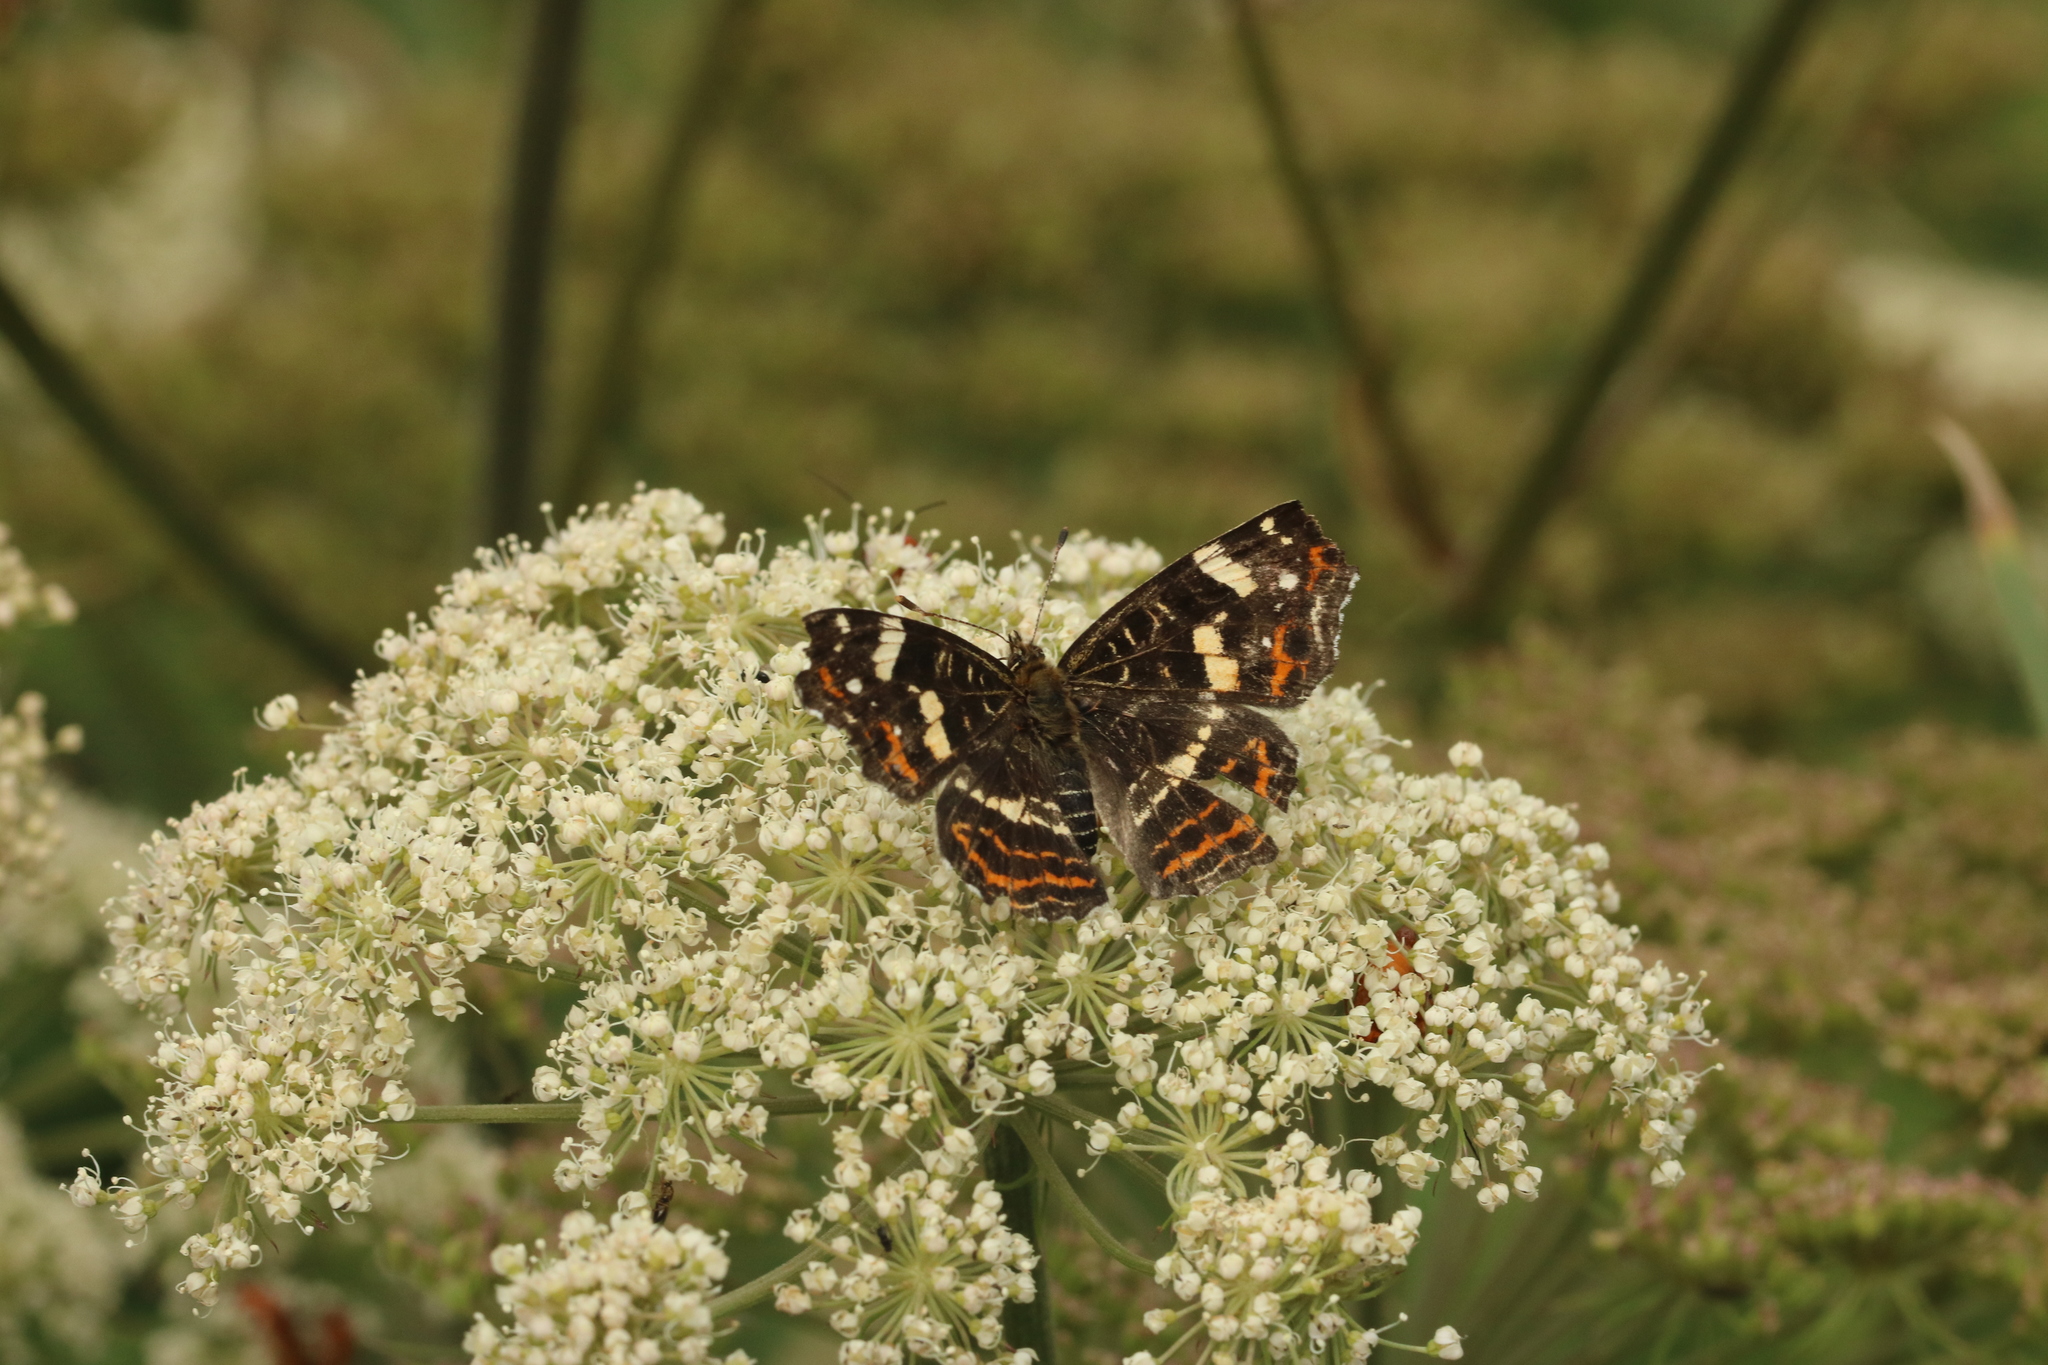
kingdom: Animalia
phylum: Arthropoda
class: Insecta
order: Lepidoptera
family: Nymphalidae
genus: Araschnia
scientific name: Araschnia levana
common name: Map butterfly
